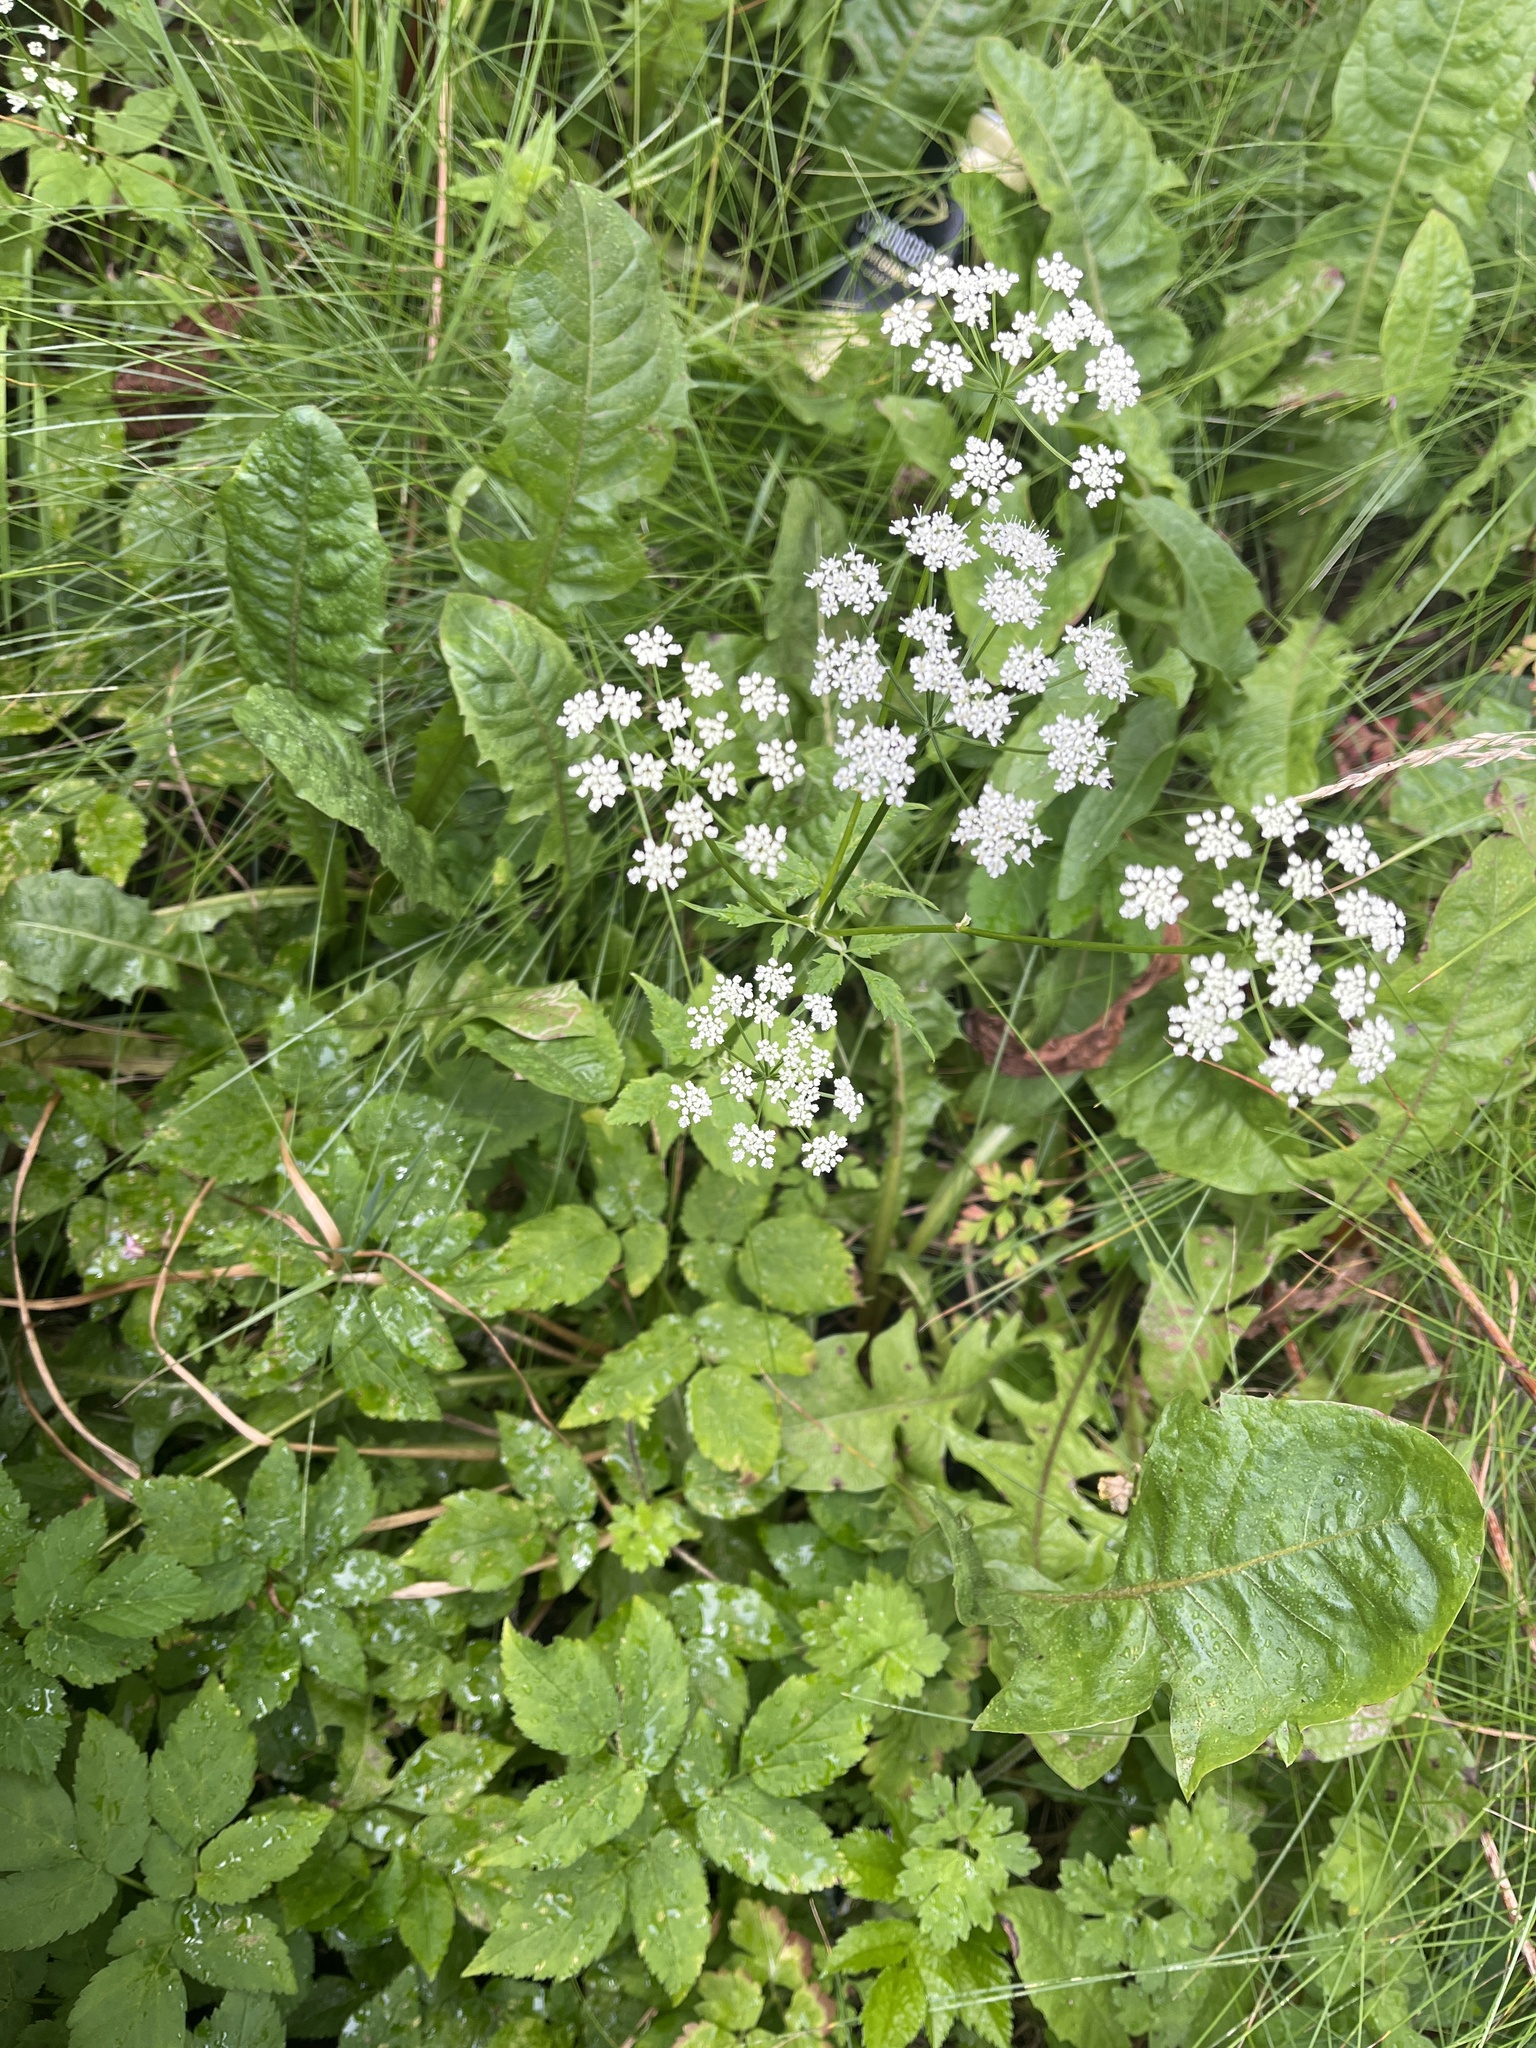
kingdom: Plantae
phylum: Tracheophyta
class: Magnoliopsida
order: Apiales
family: Apiaceae
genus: Aegopodium
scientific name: Aegopodium podagraria
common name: Ground-elder
